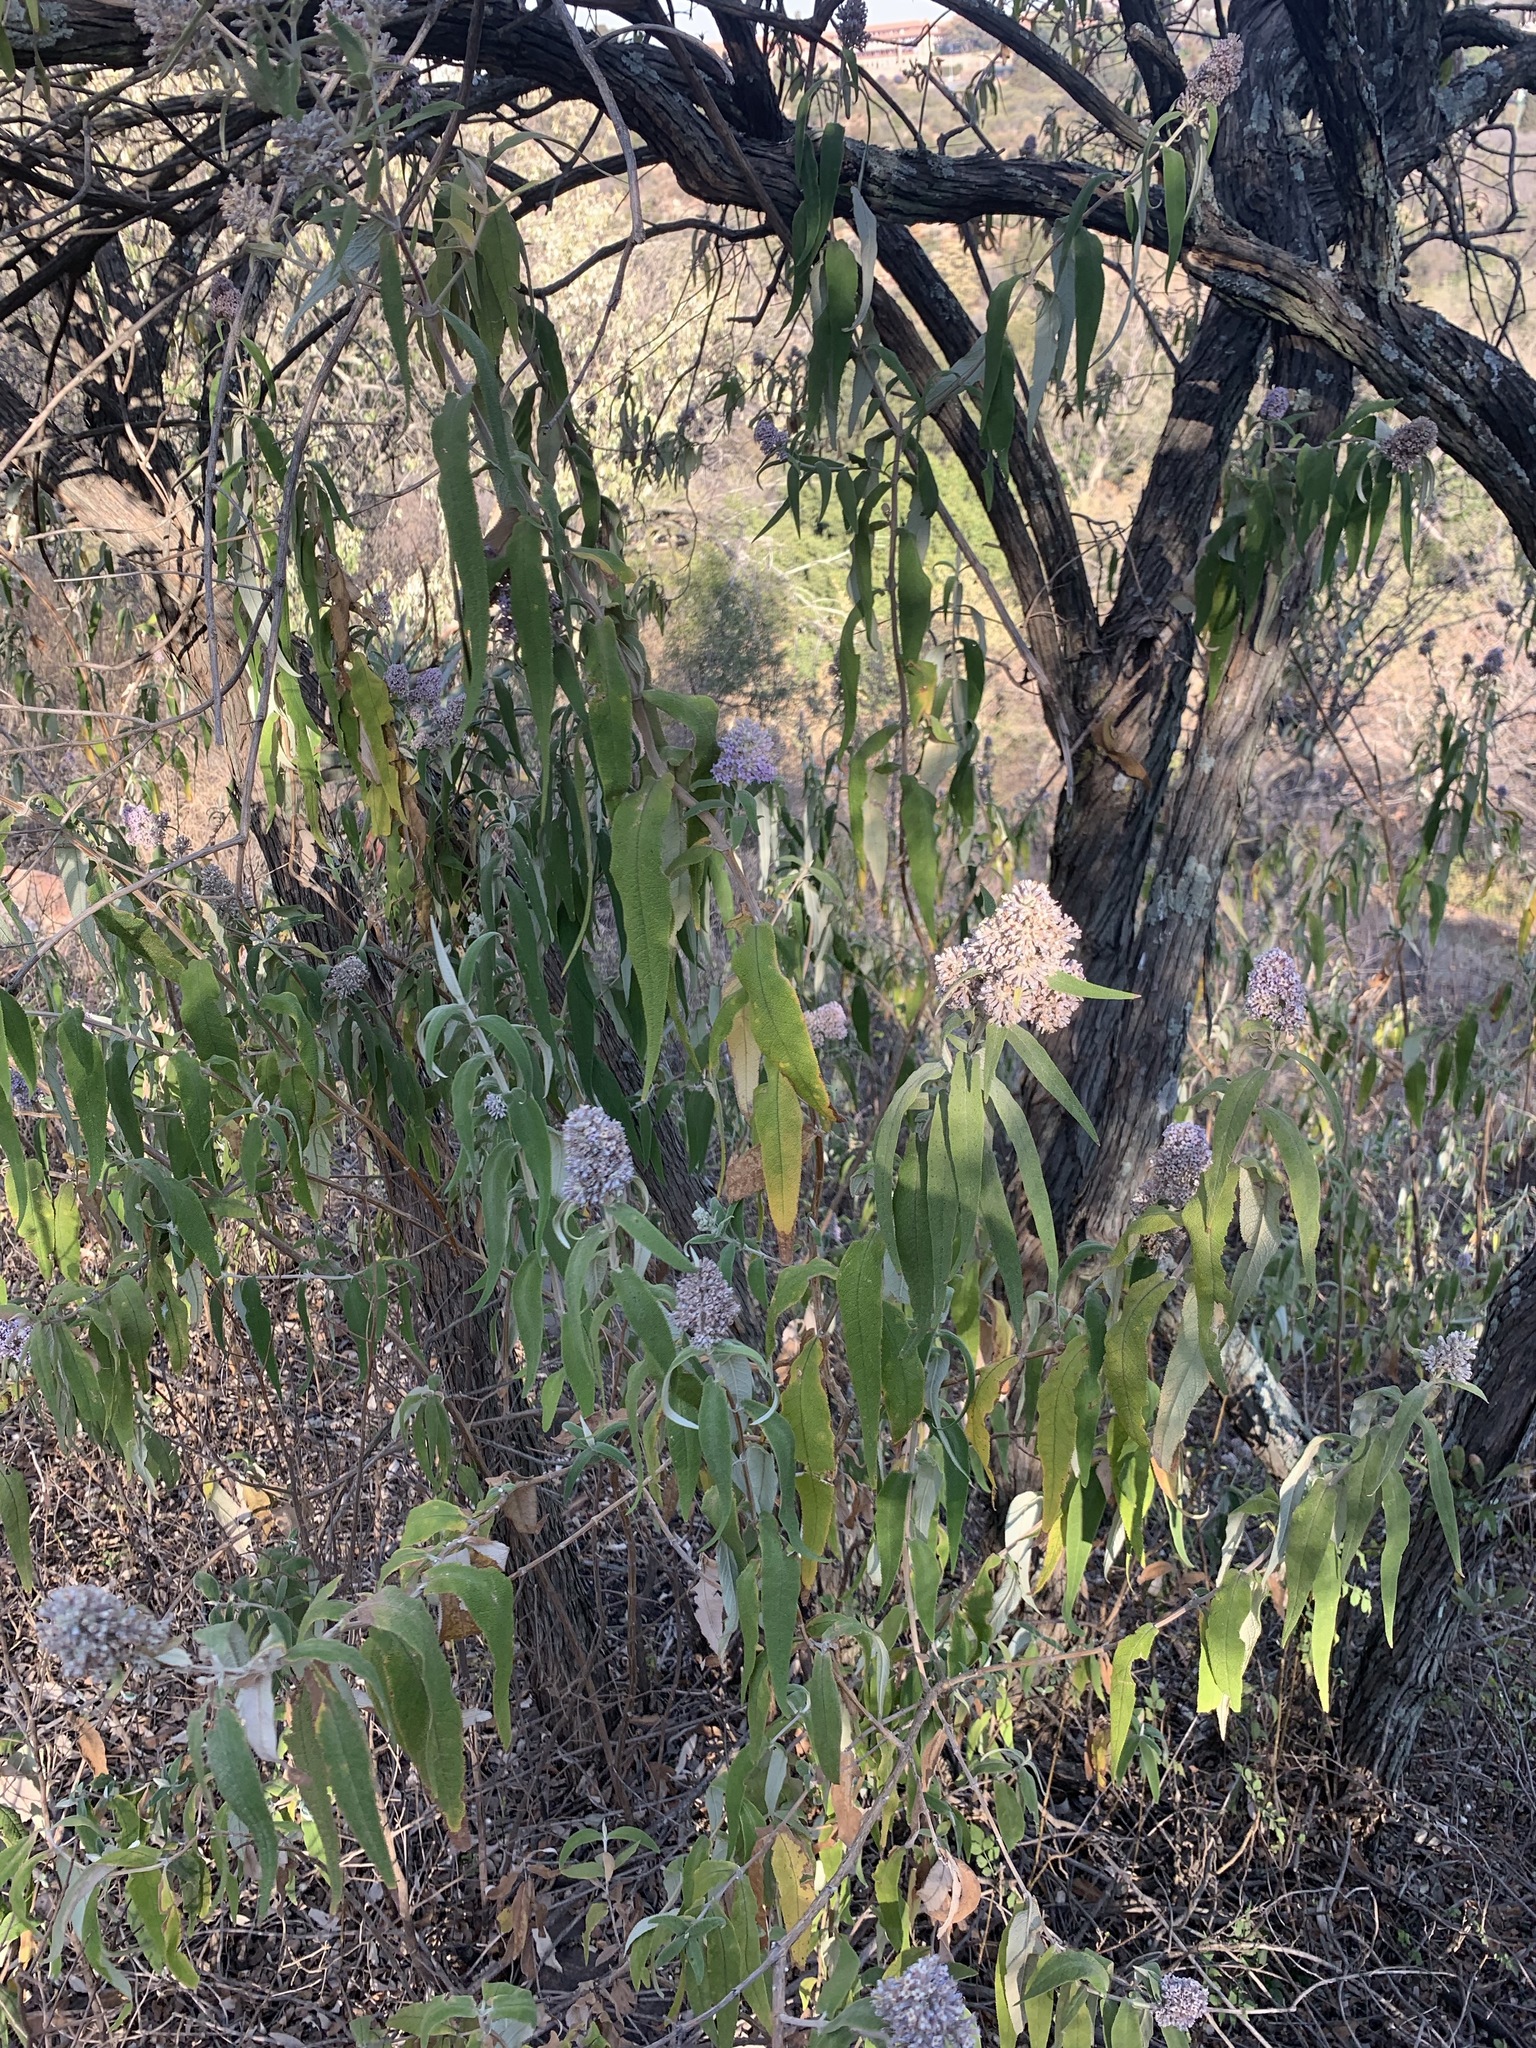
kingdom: Plantae
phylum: Tracheophyta
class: Magnoliopsida
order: Lamiales
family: Scrophulariaceae
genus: Buddleja
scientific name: Buddleja salviifolia
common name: Sagewood
